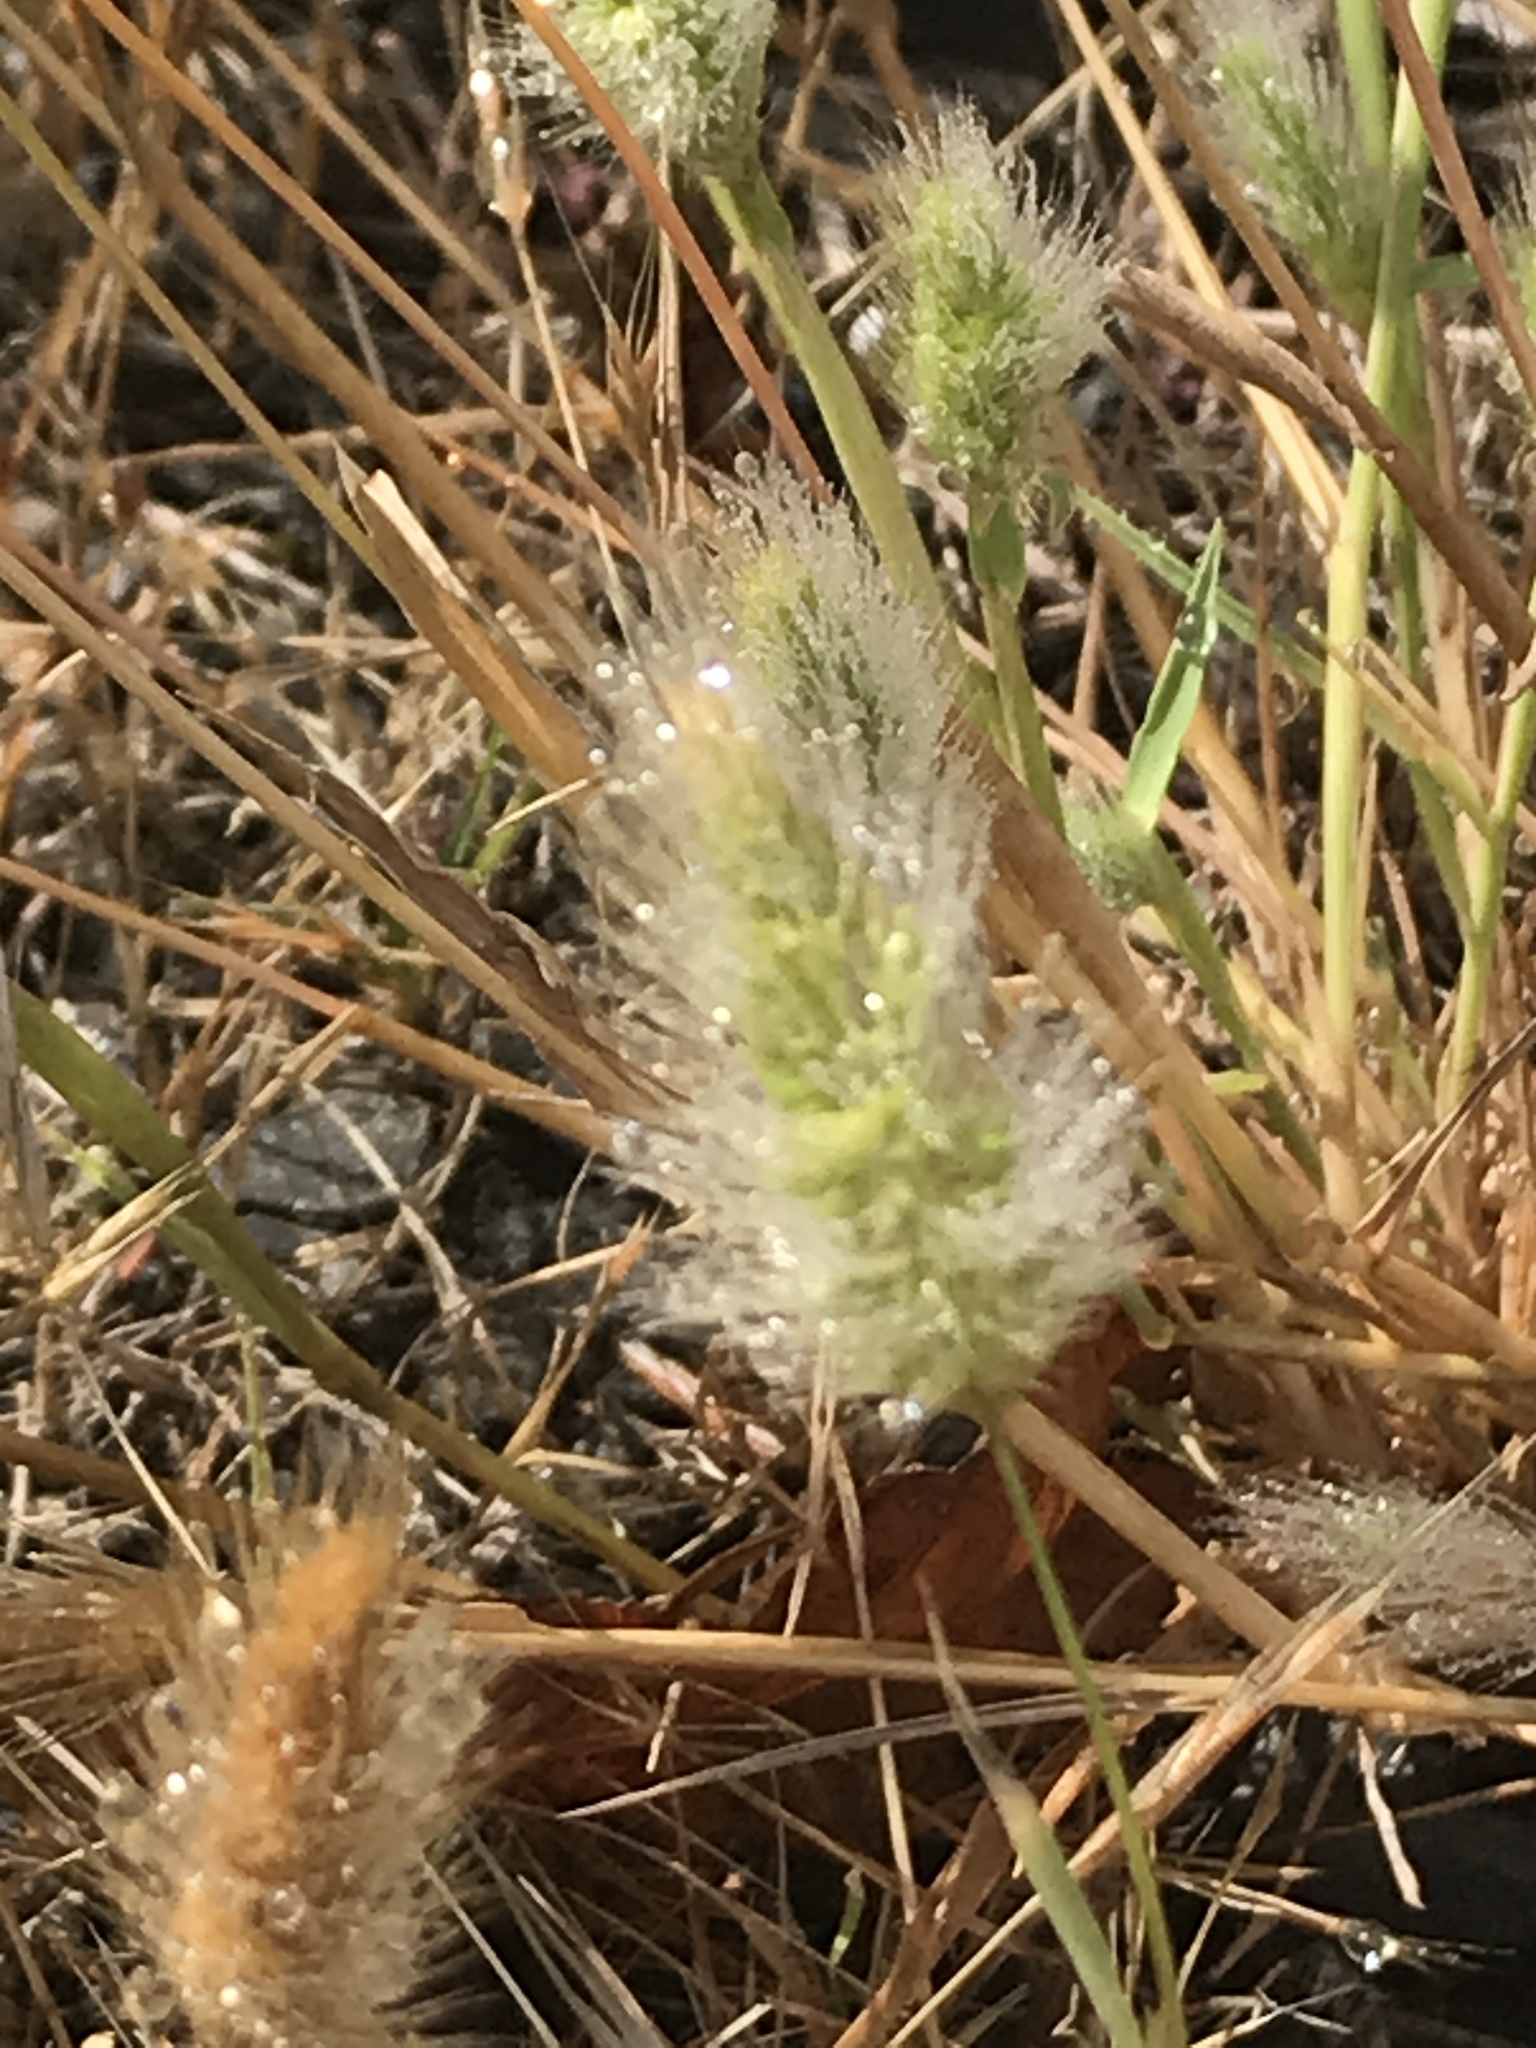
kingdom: Plantae
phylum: Tracheophyta
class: Liliopsida
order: Poales
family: Poaceae
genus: Polypogon
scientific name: Polypogon monspeliensis
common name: Annual rabbitsfoot grass
